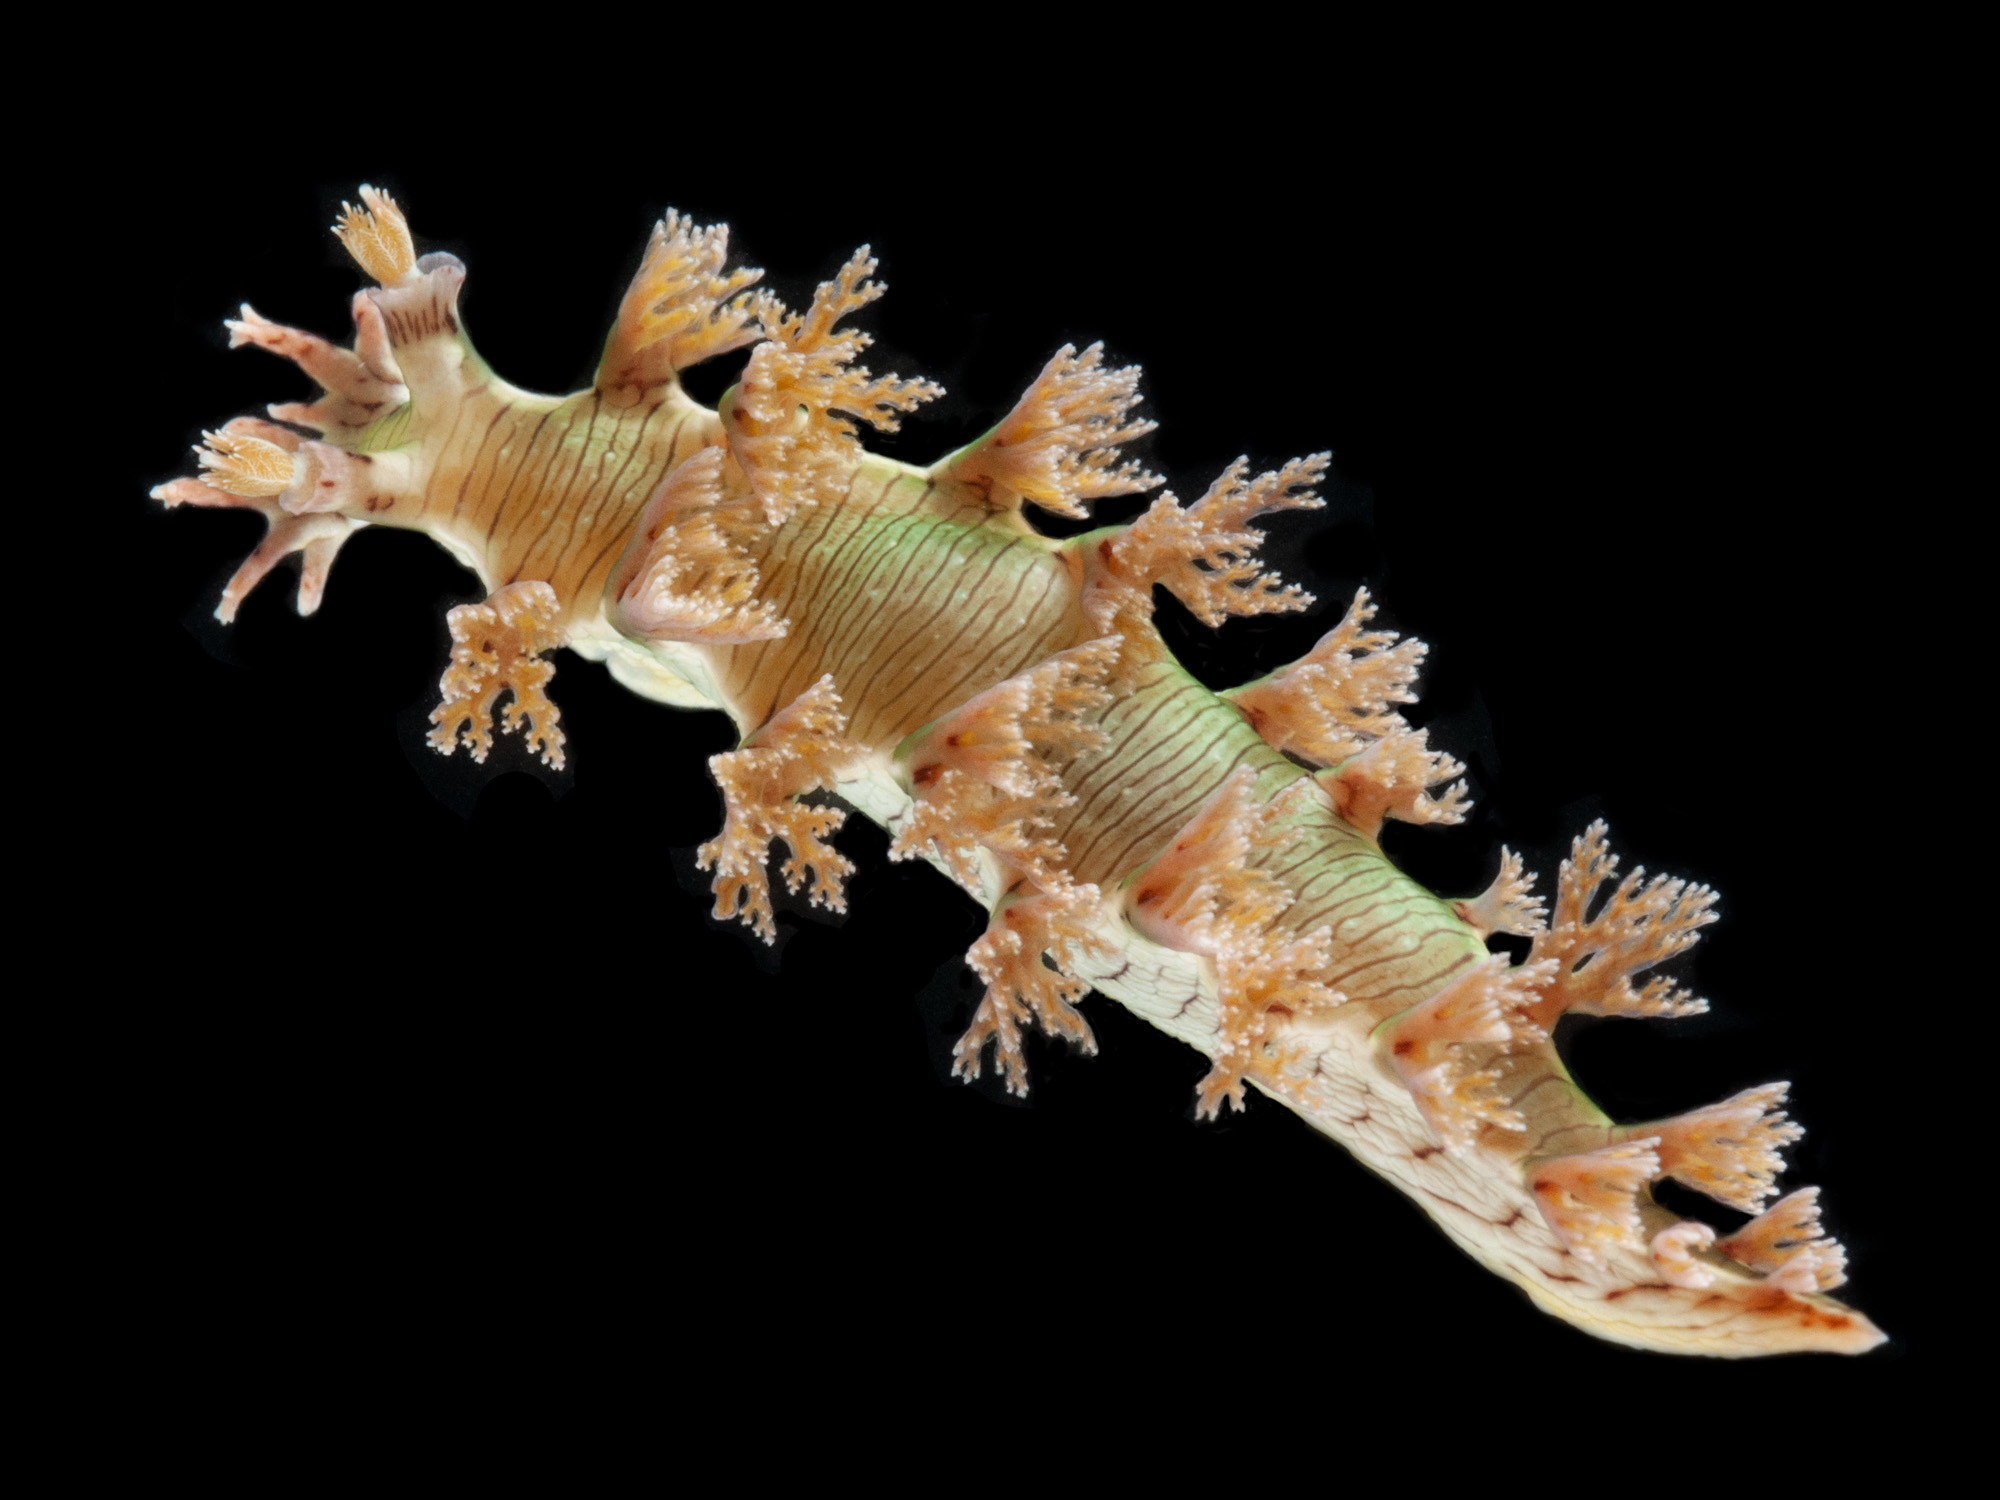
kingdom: Animalia
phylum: Mollusca
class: Gastropoda
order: Nudibranchia
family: Tritoniidae
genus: Marionia
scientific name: Marionia levis
